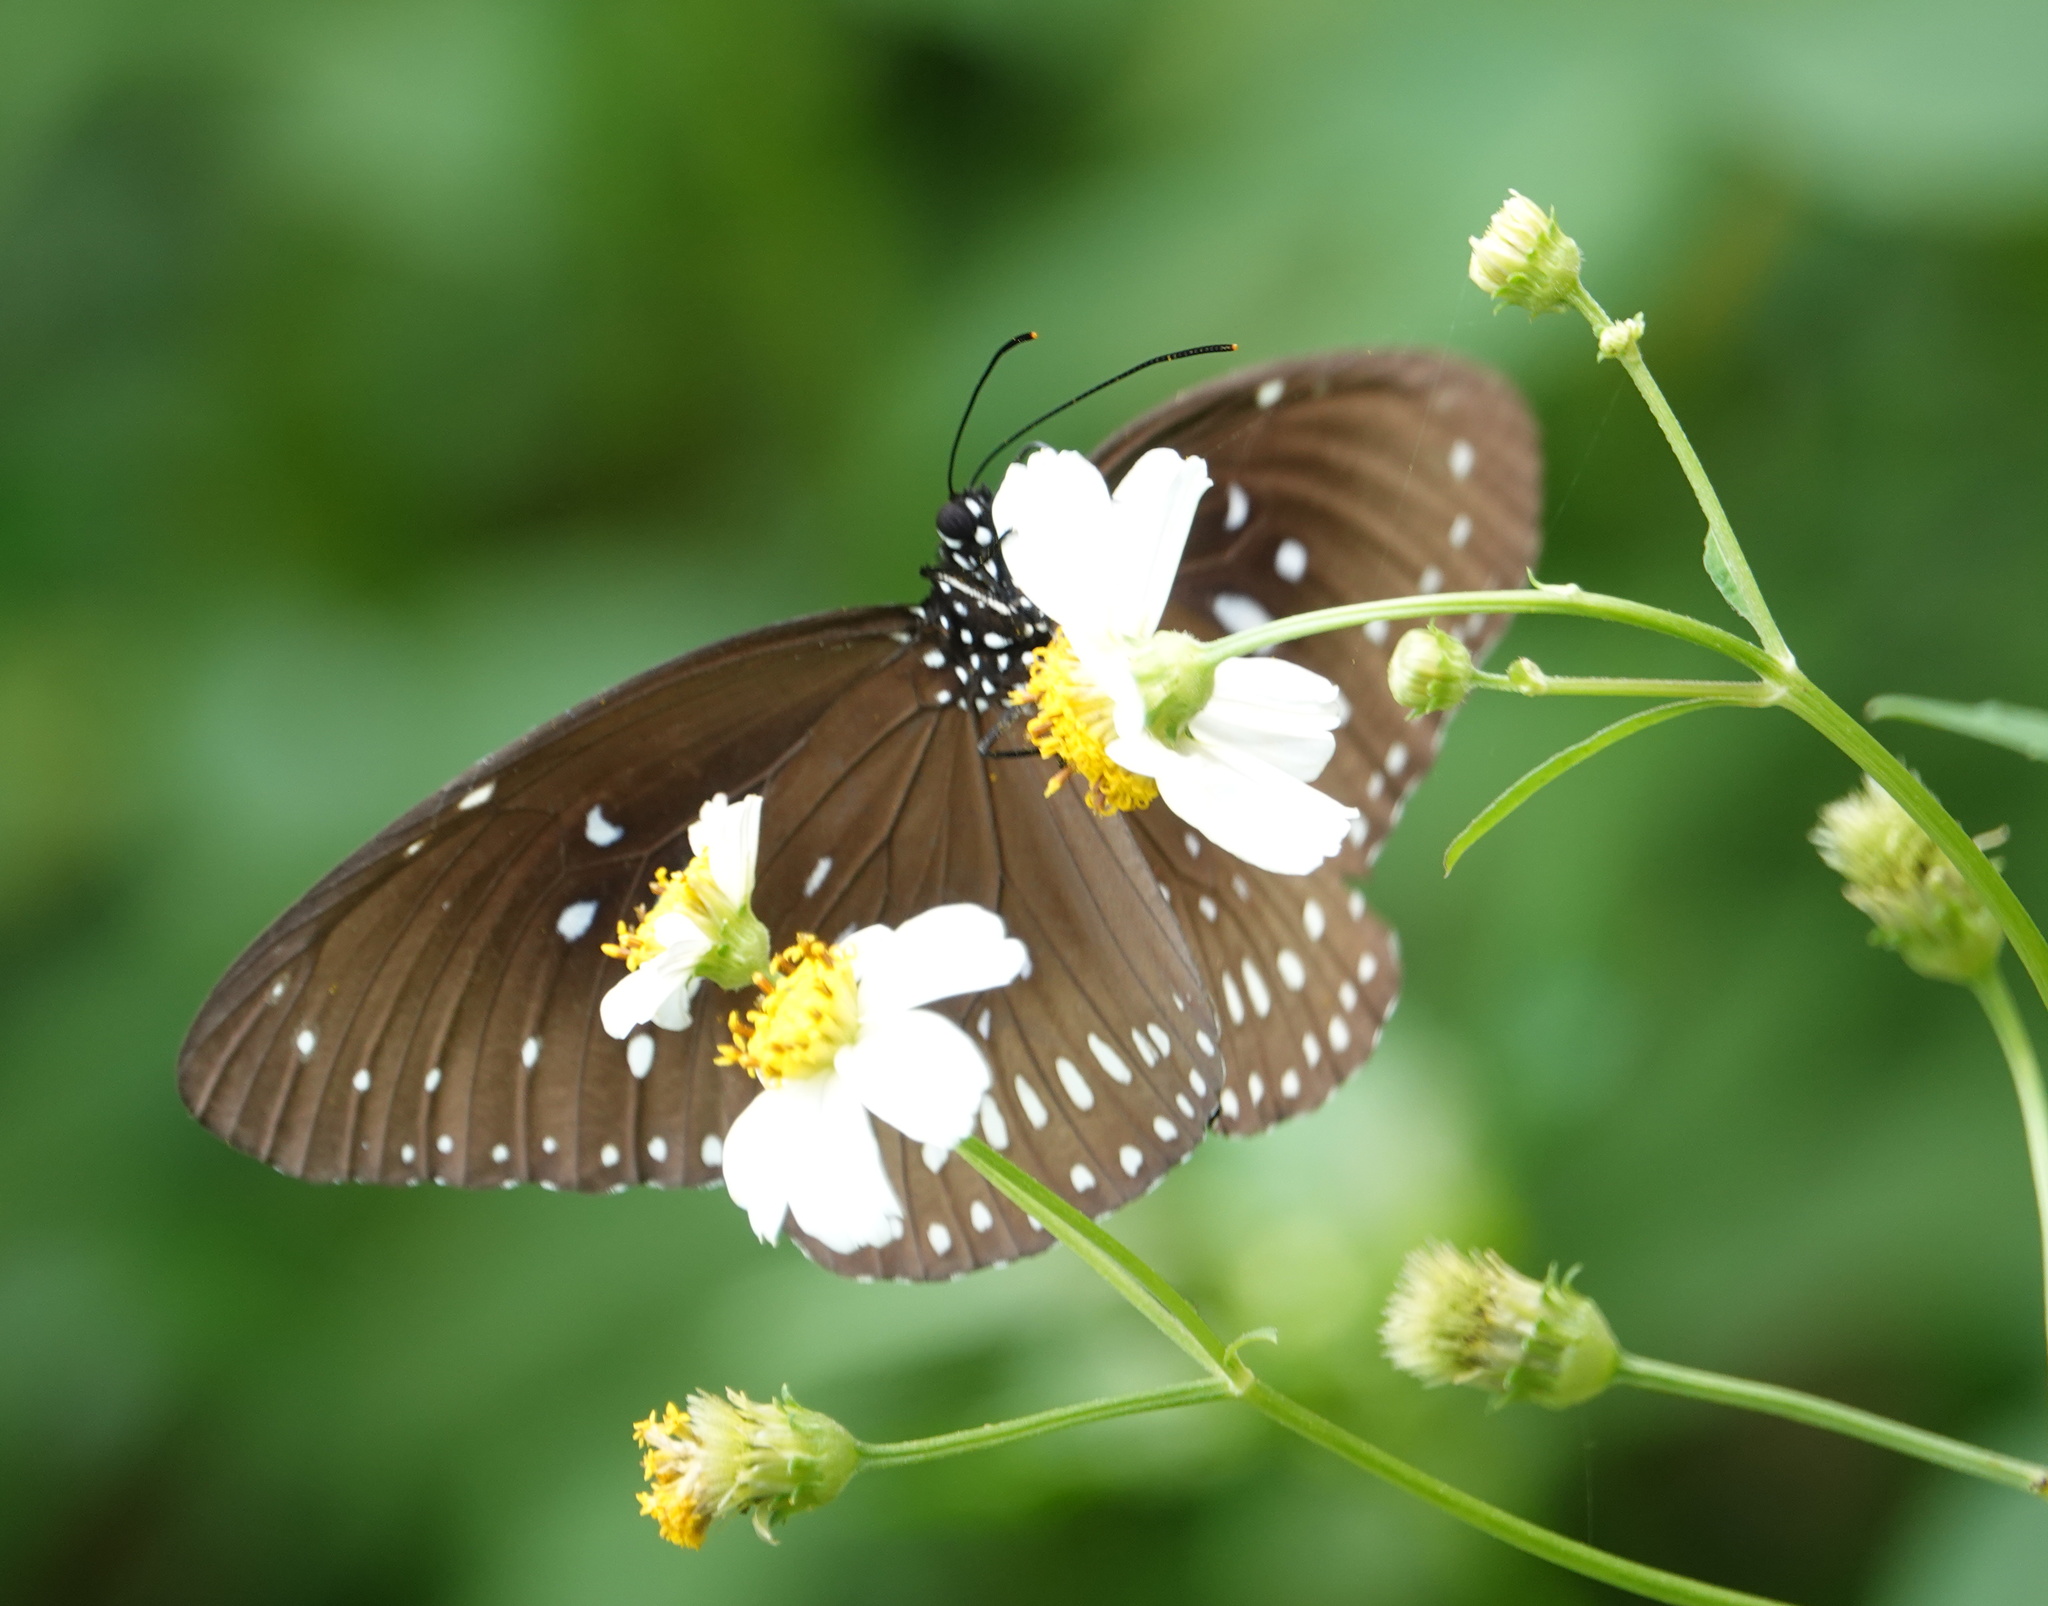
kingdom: Animalia
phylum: Arthropoda
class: Insecta
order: Lepidoptera
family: Nymphalidae
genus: Euploea
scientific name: Euploea midamus
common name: Blue-spotted crow butterfly
